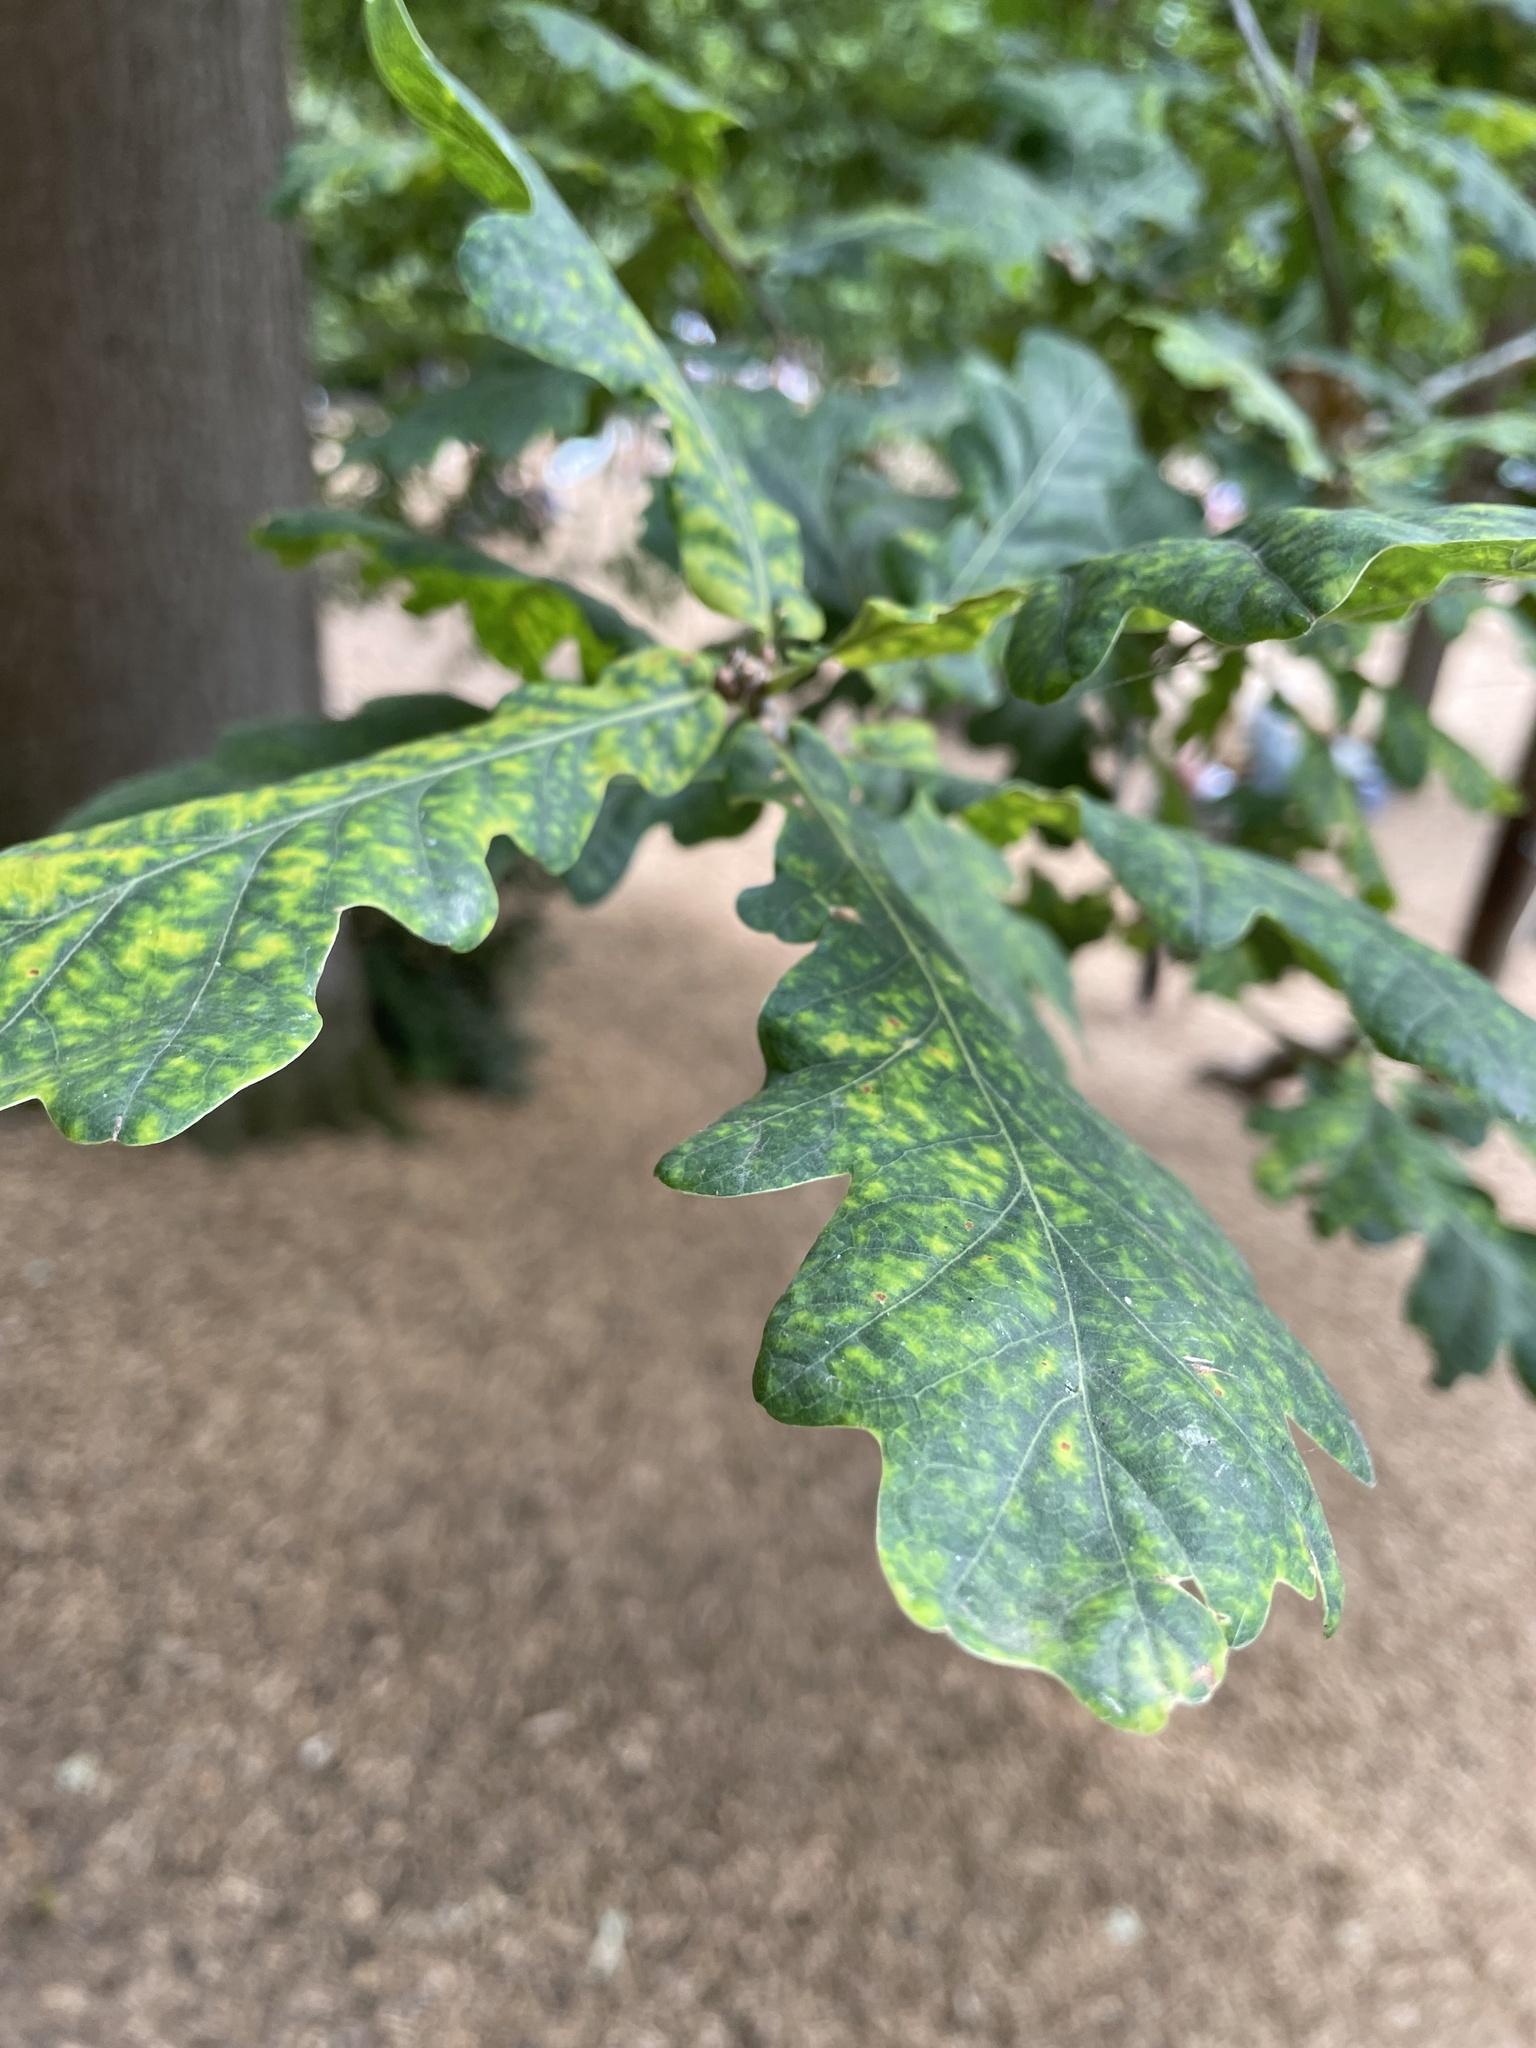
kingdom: Plantae
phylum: Tracheophyta
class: Magnoliopsida
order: Fagales
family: Fagaceae
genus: Quercus
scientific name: Quercus robur
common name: Pedunculate oak
